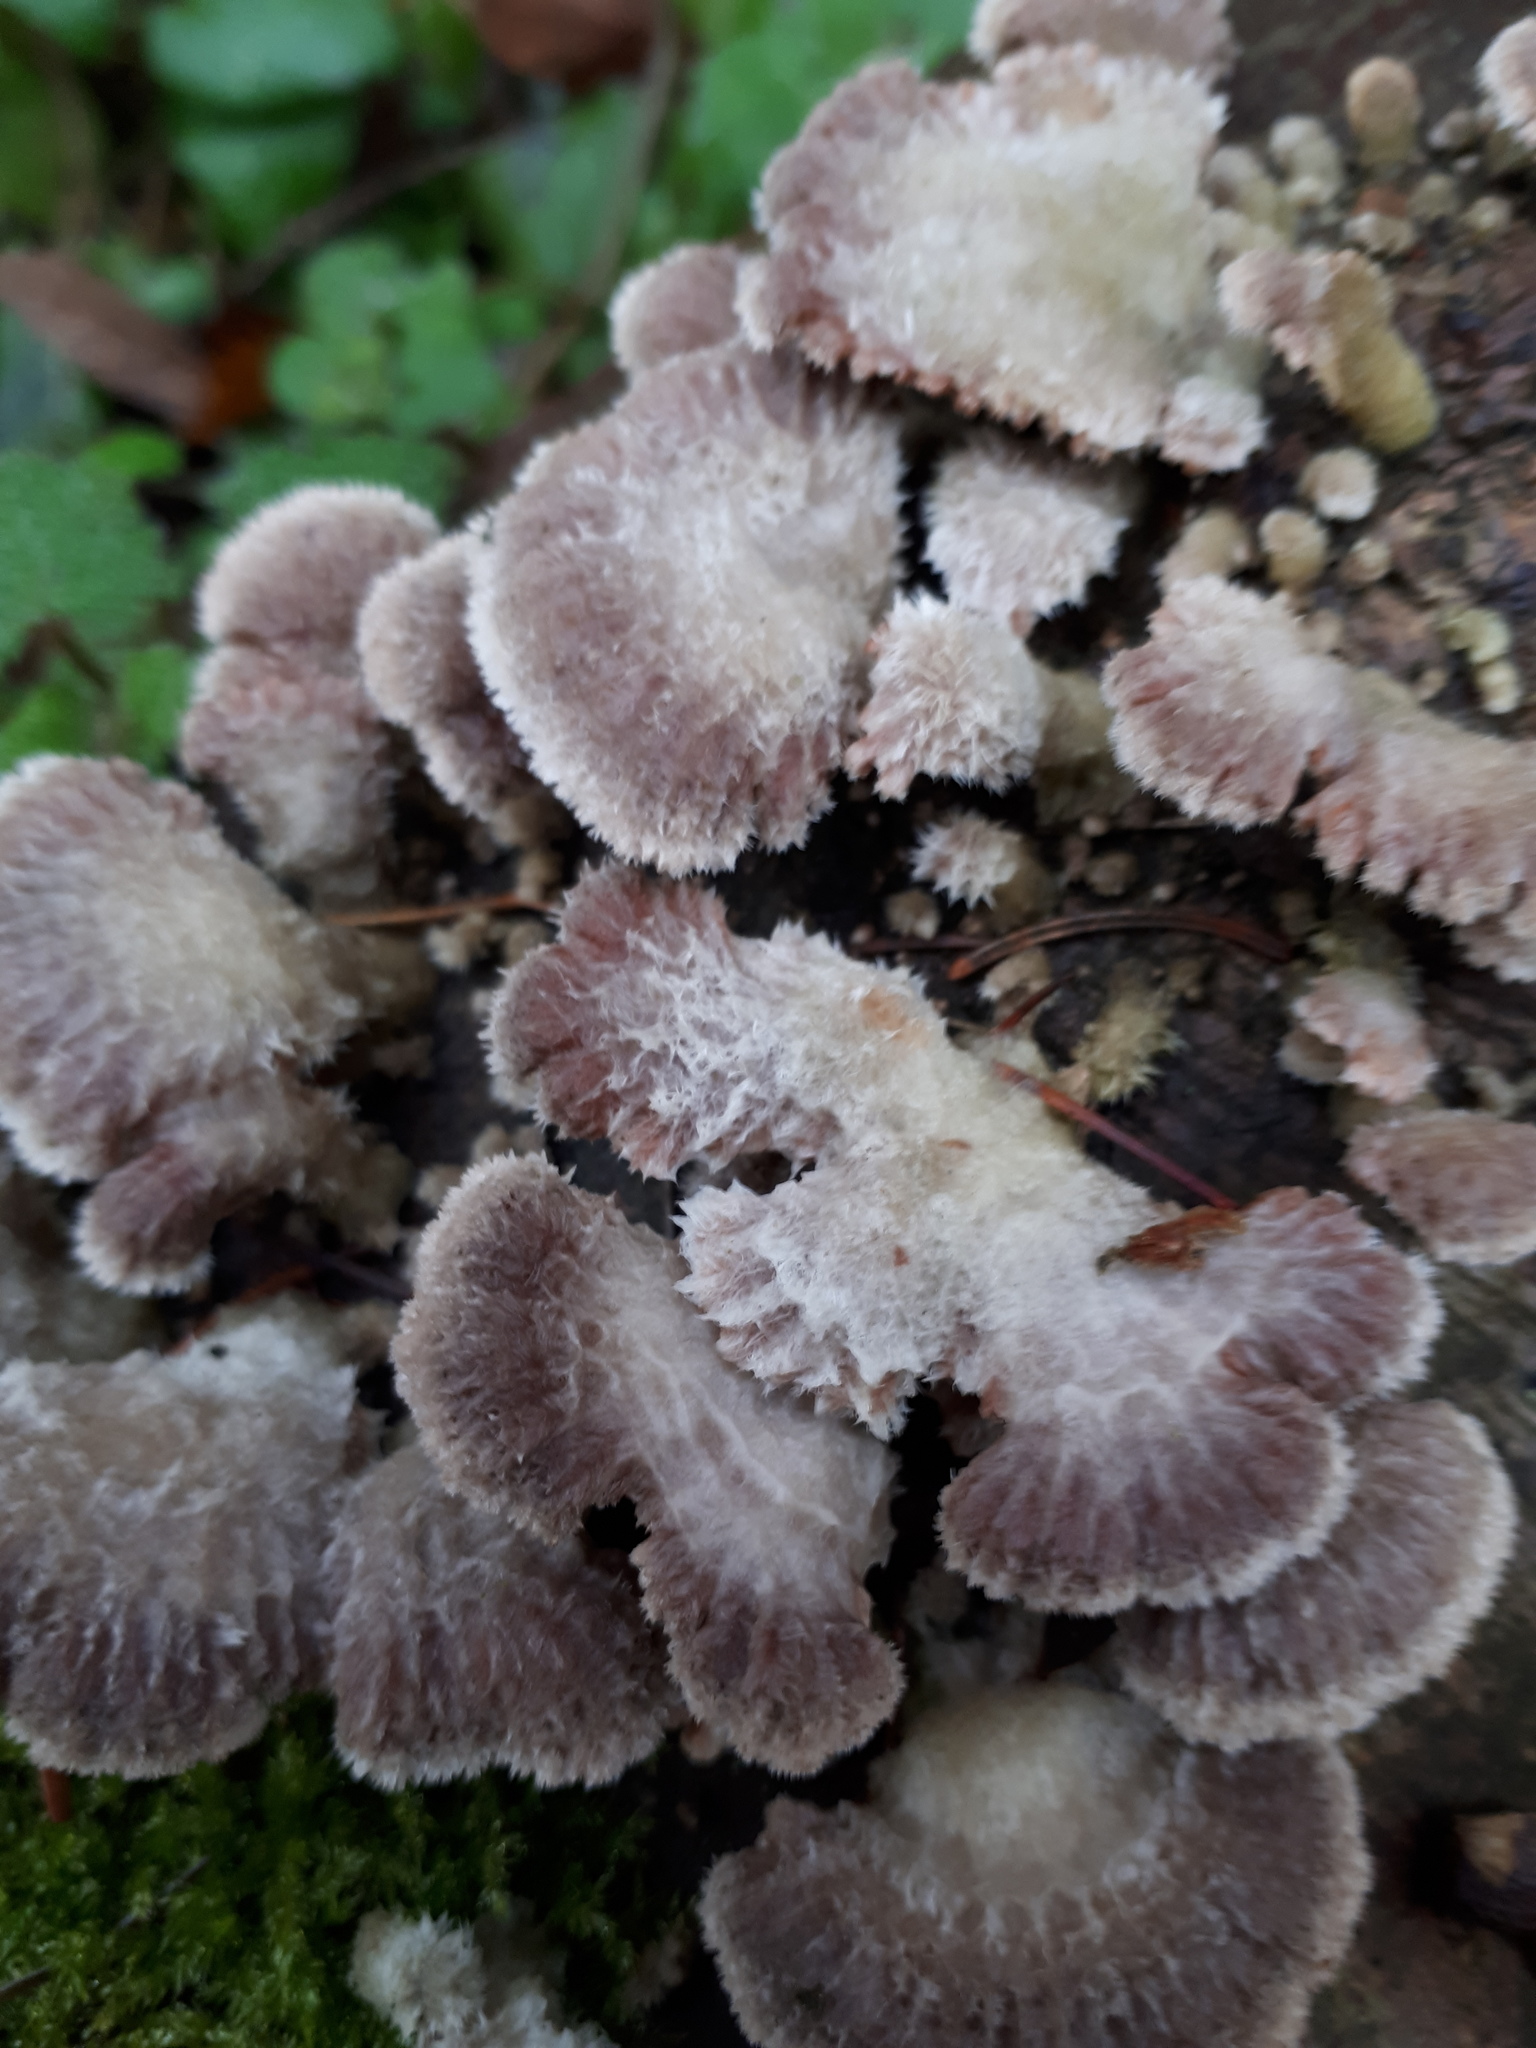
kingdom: Fungi
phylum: Basidiomycota
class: Agaricomycetes
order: Agaricales
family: Schizophyllaceae
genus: Schizophyllum
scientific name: Schizophyllum commune
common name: Common porecrust
